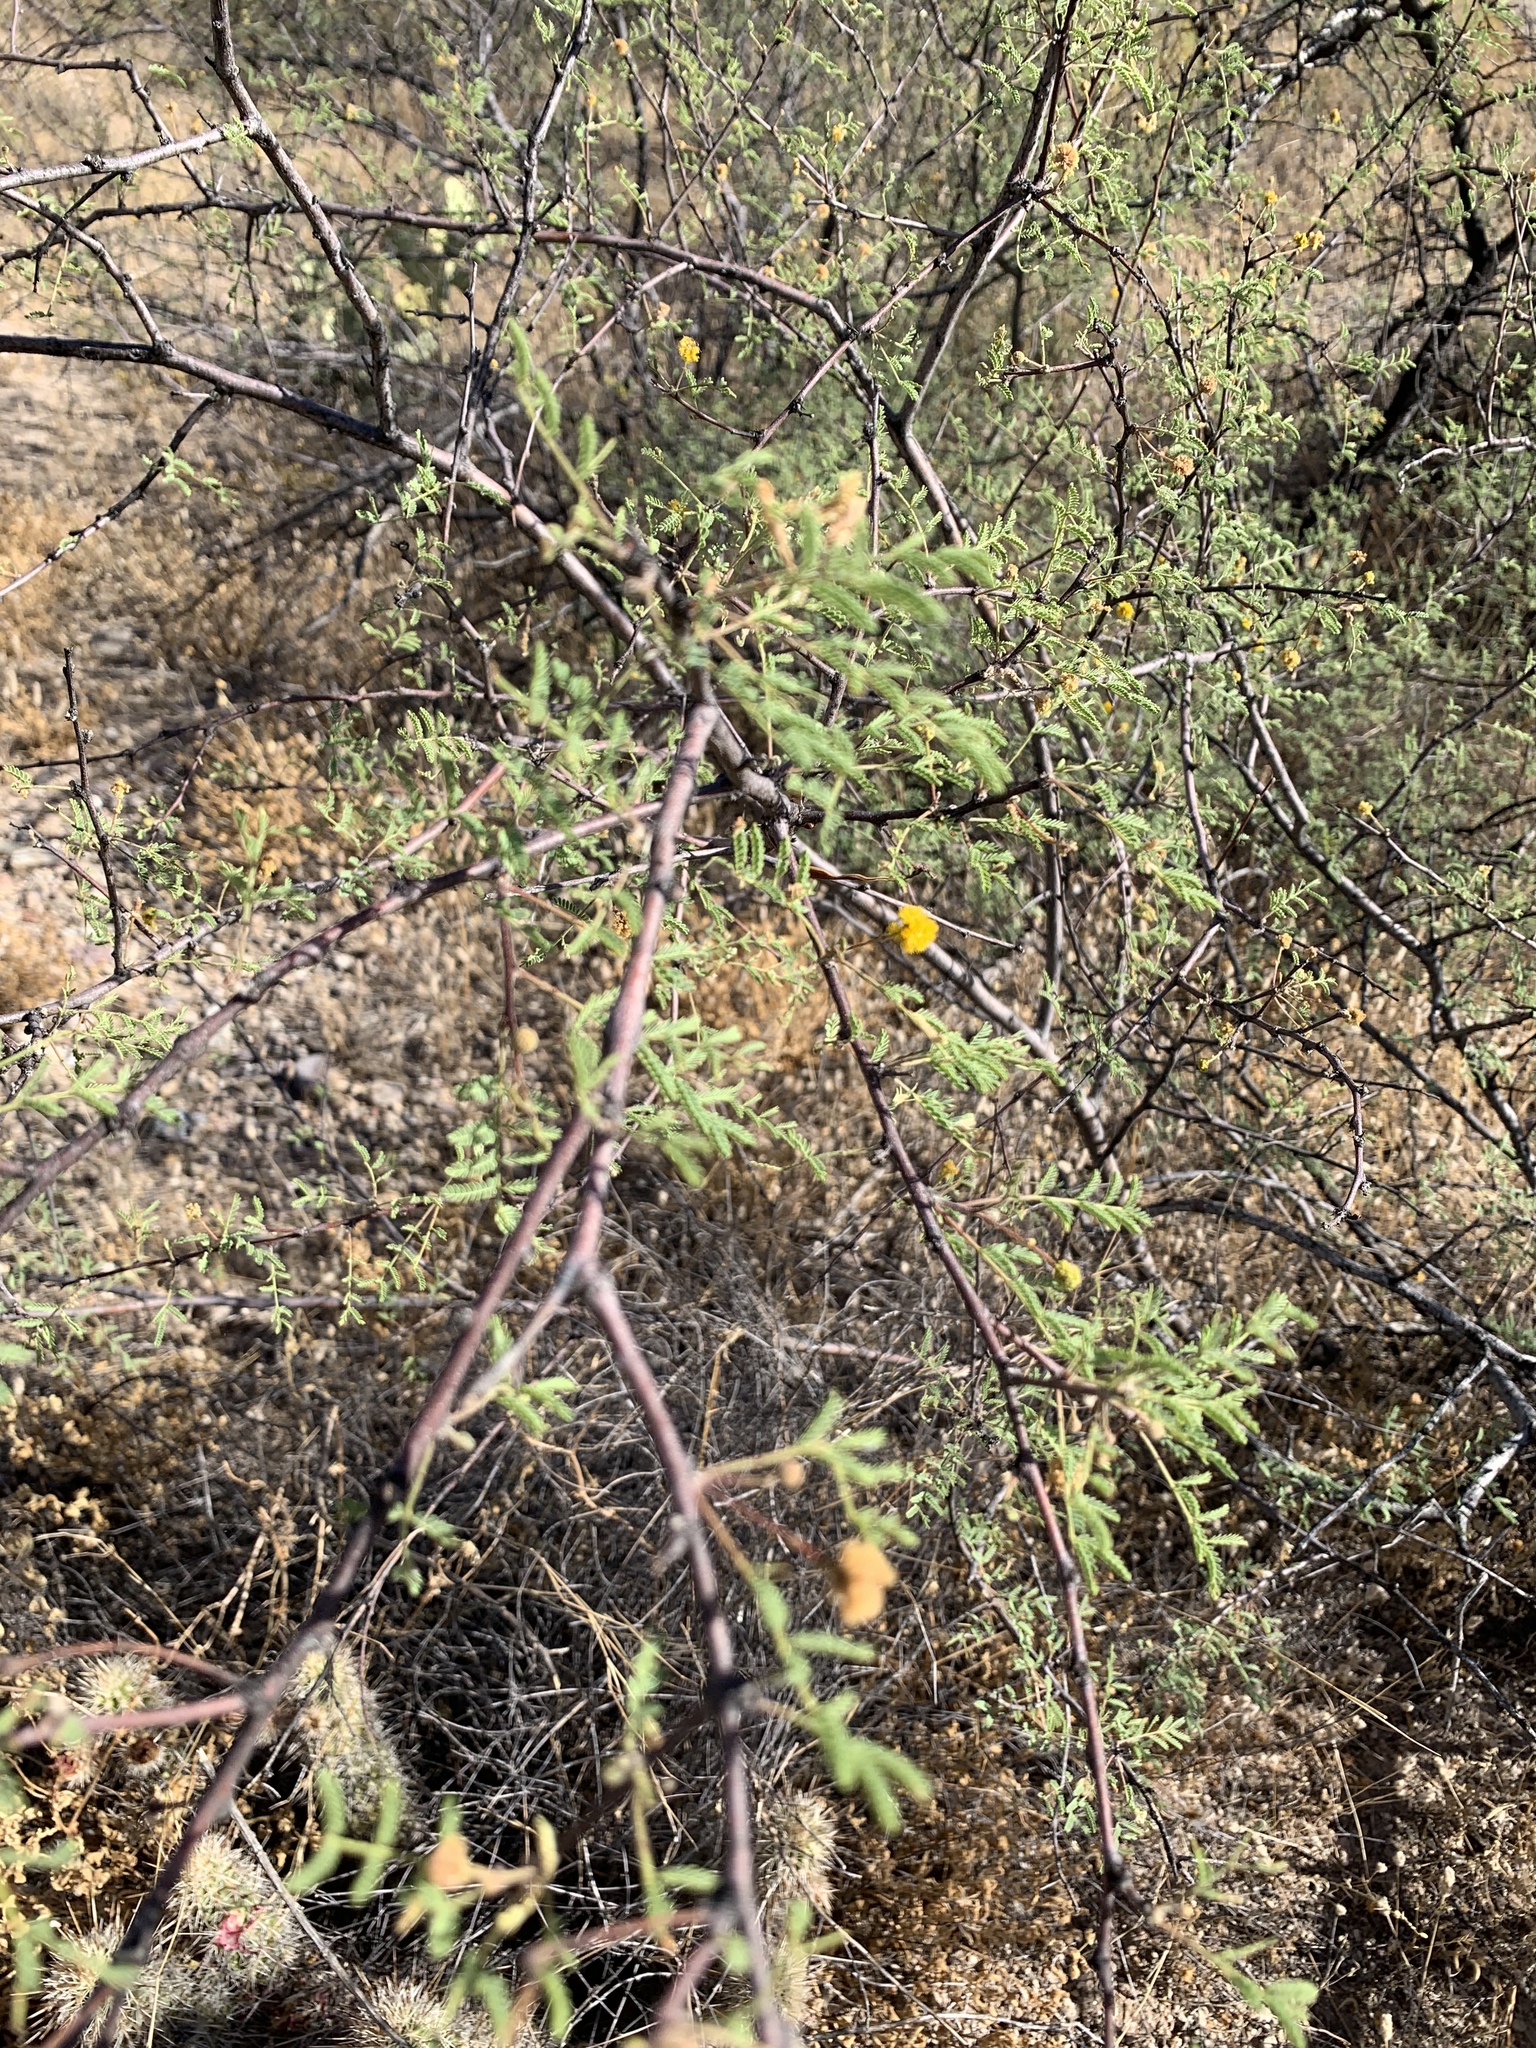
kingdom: Plantae
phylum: Tracheophyta
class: Magnoliopsida
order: Fabales
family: Fabaceae
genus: Vachellia
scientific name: Vachellia constricta
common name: Mescat acacia
